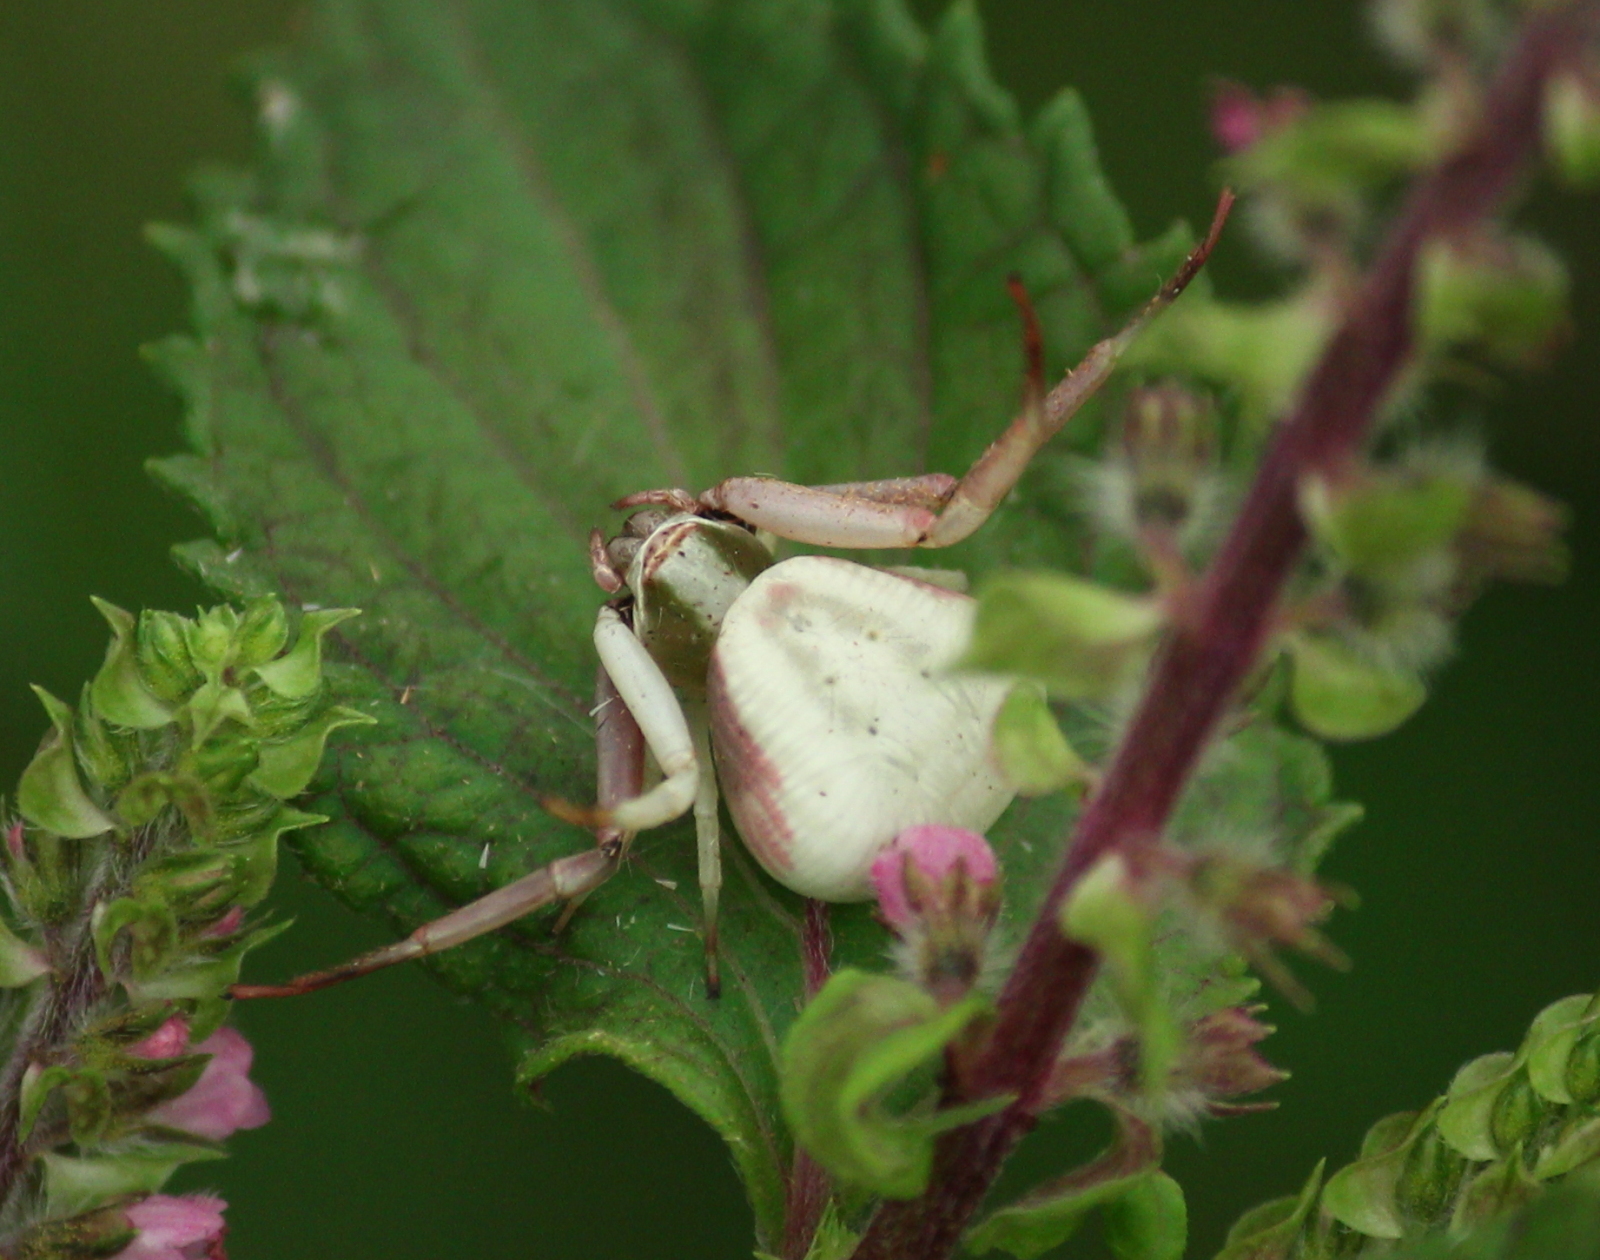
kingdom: Animalia
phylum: Arthropoda
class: Arachnida
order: Araneae
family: Thomisidae
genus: Misumenoides
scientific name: Misumenoides formosipes
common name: White-banded crab spider
